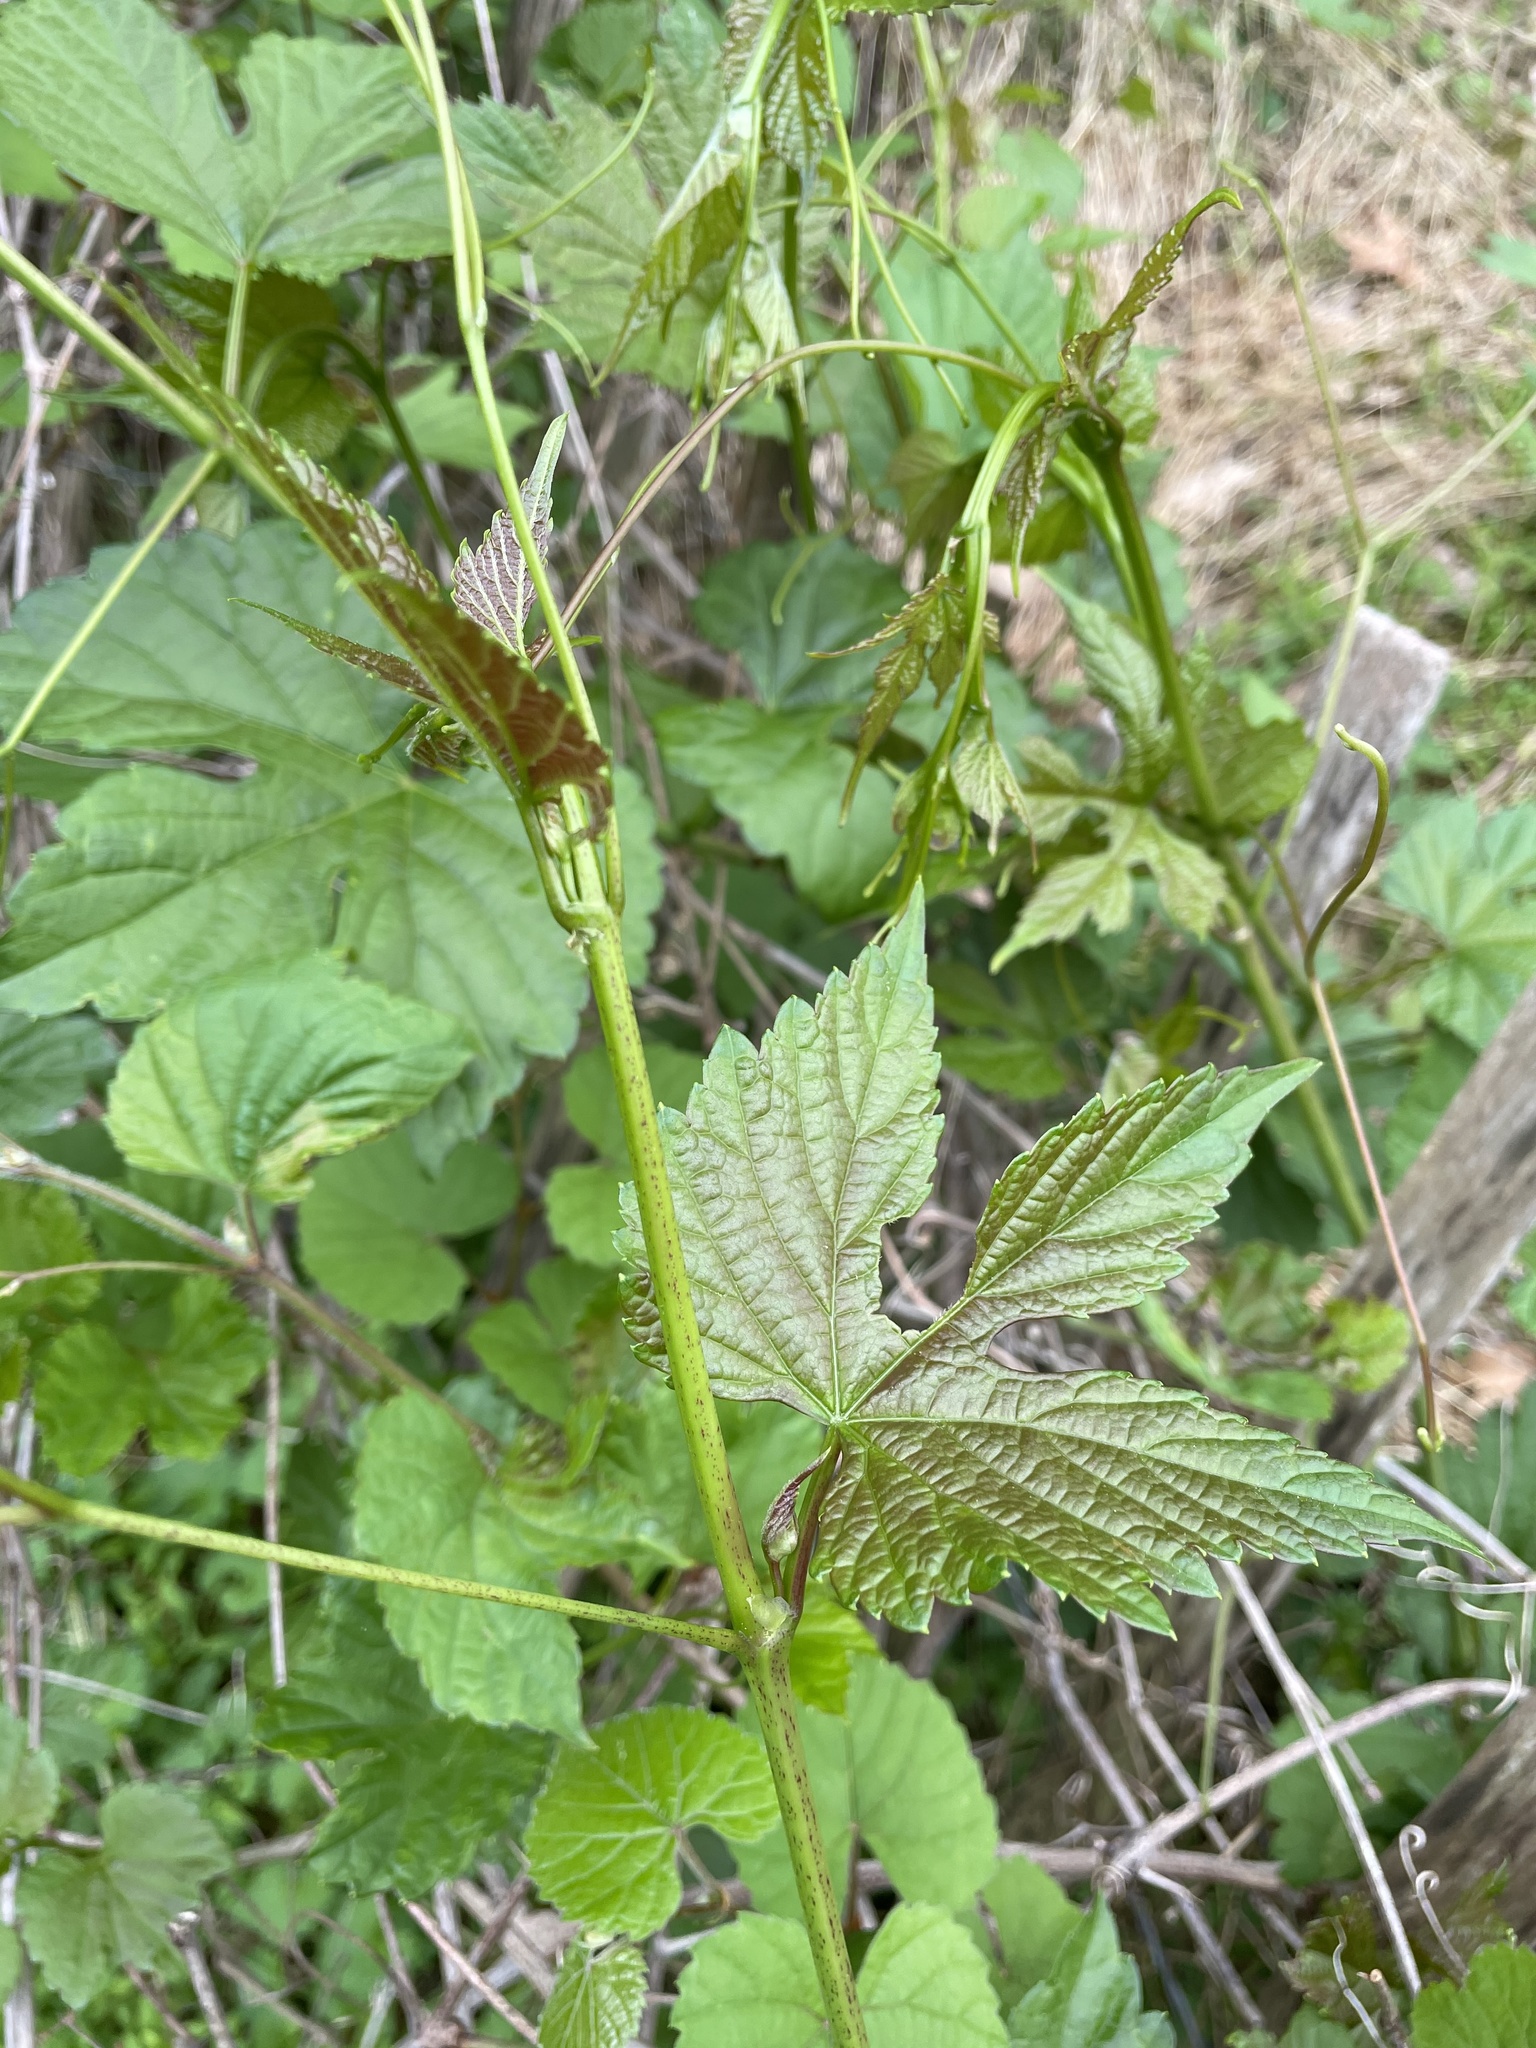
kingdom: Plantae
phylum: Tracheophyta
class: Magnoliopsida
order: Vitales
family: Vitaceae
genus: Ampelopsis
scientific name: Ampelopsis glandulosa
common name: Amur peppervine
